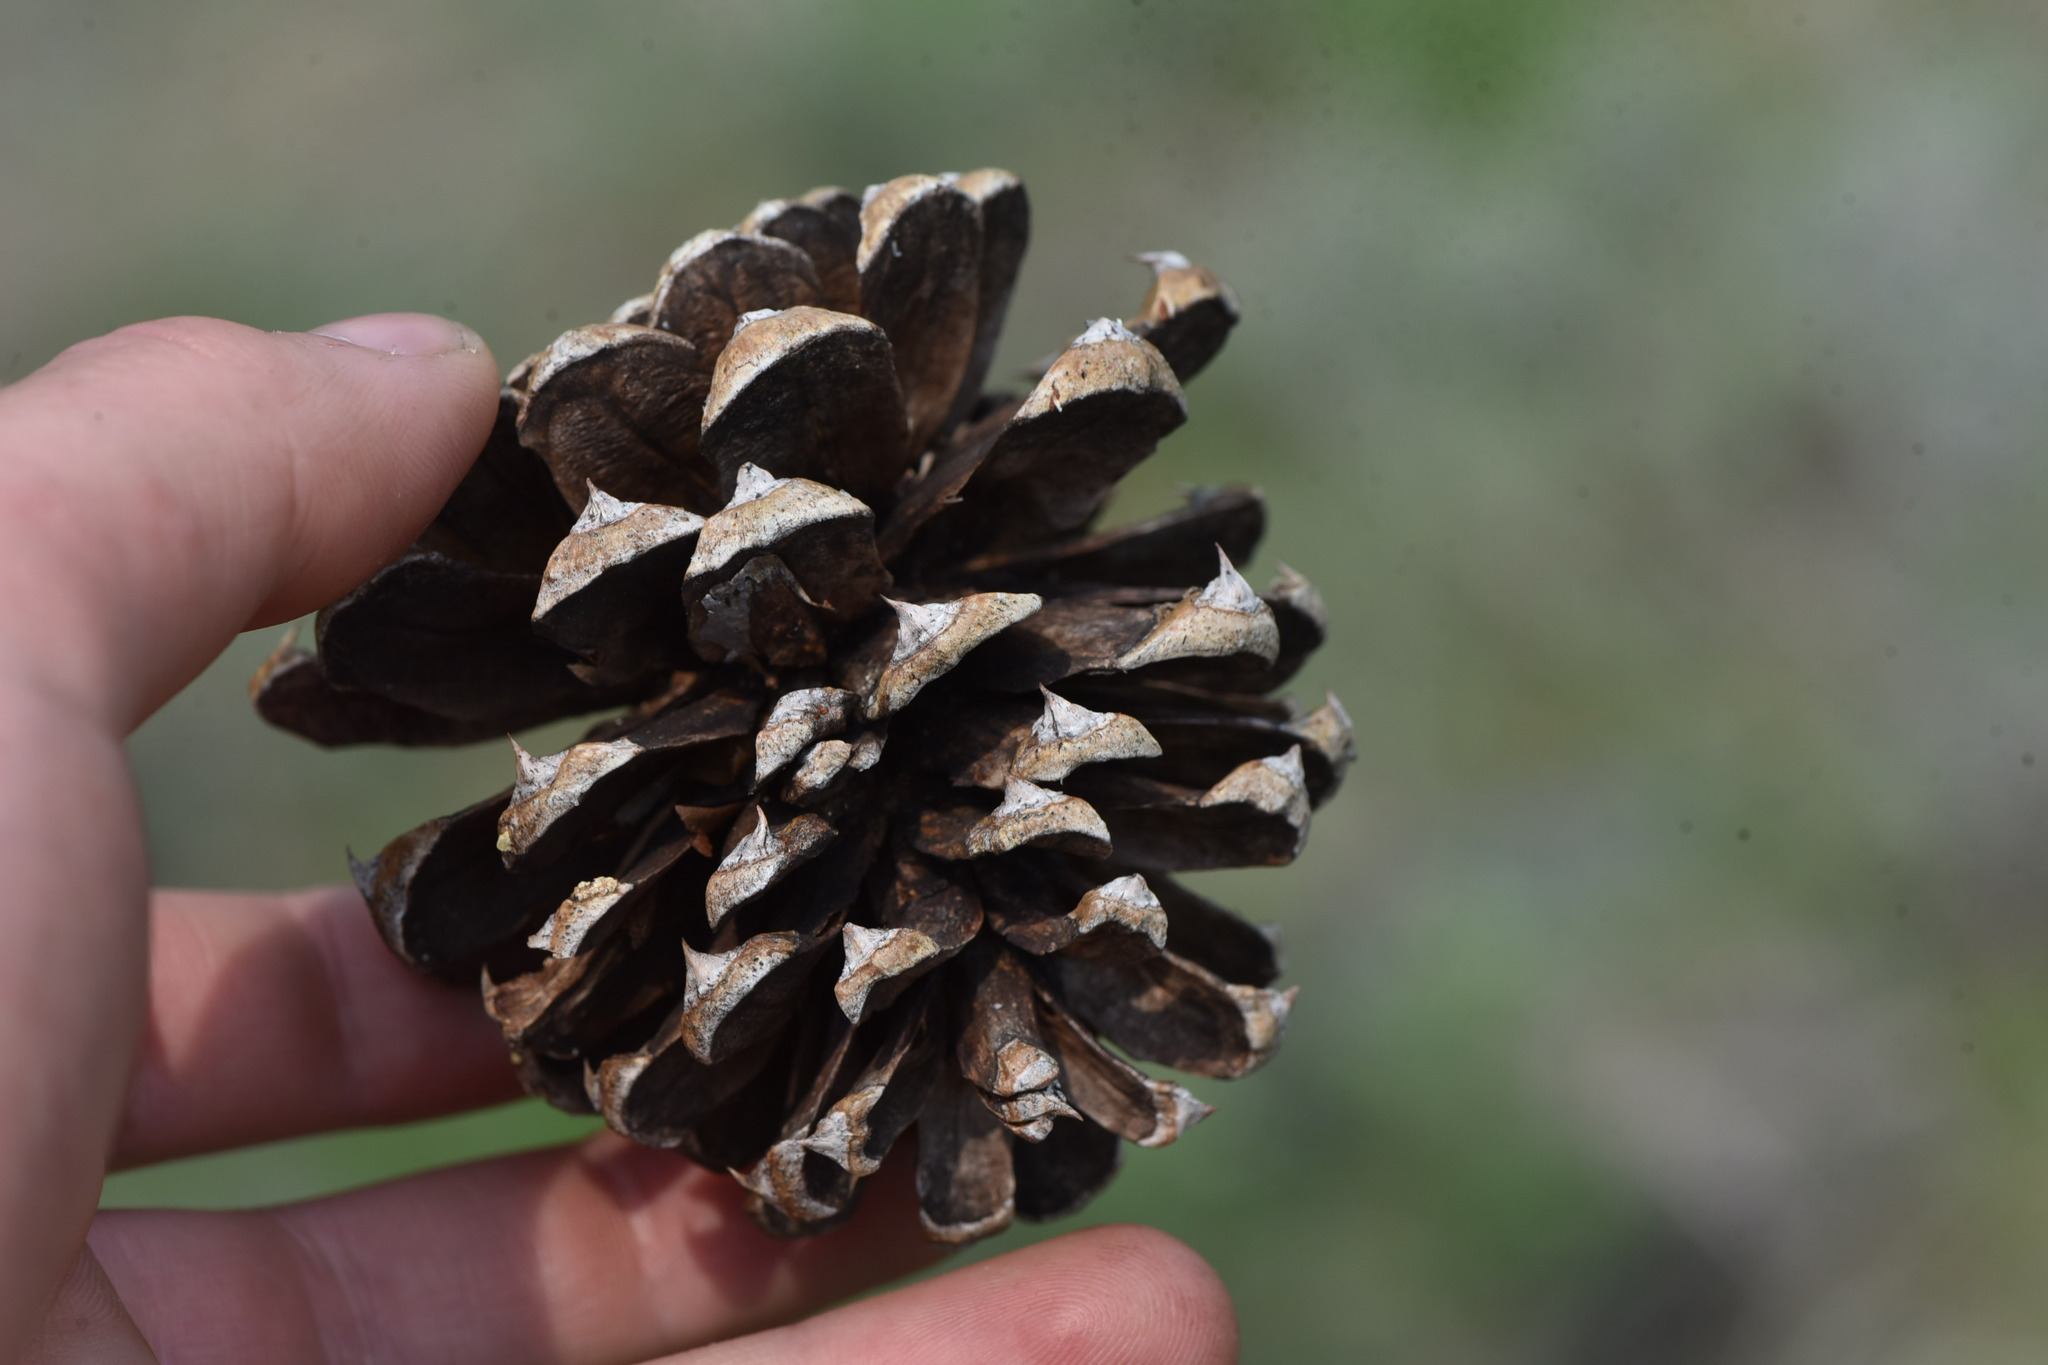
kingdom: Plantae
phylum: Tracheophyta
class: Pinopsida
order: Pinales
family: Pinaceae
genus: Pinus
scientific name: Pinus ponderosa
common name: Western yellow-pine
